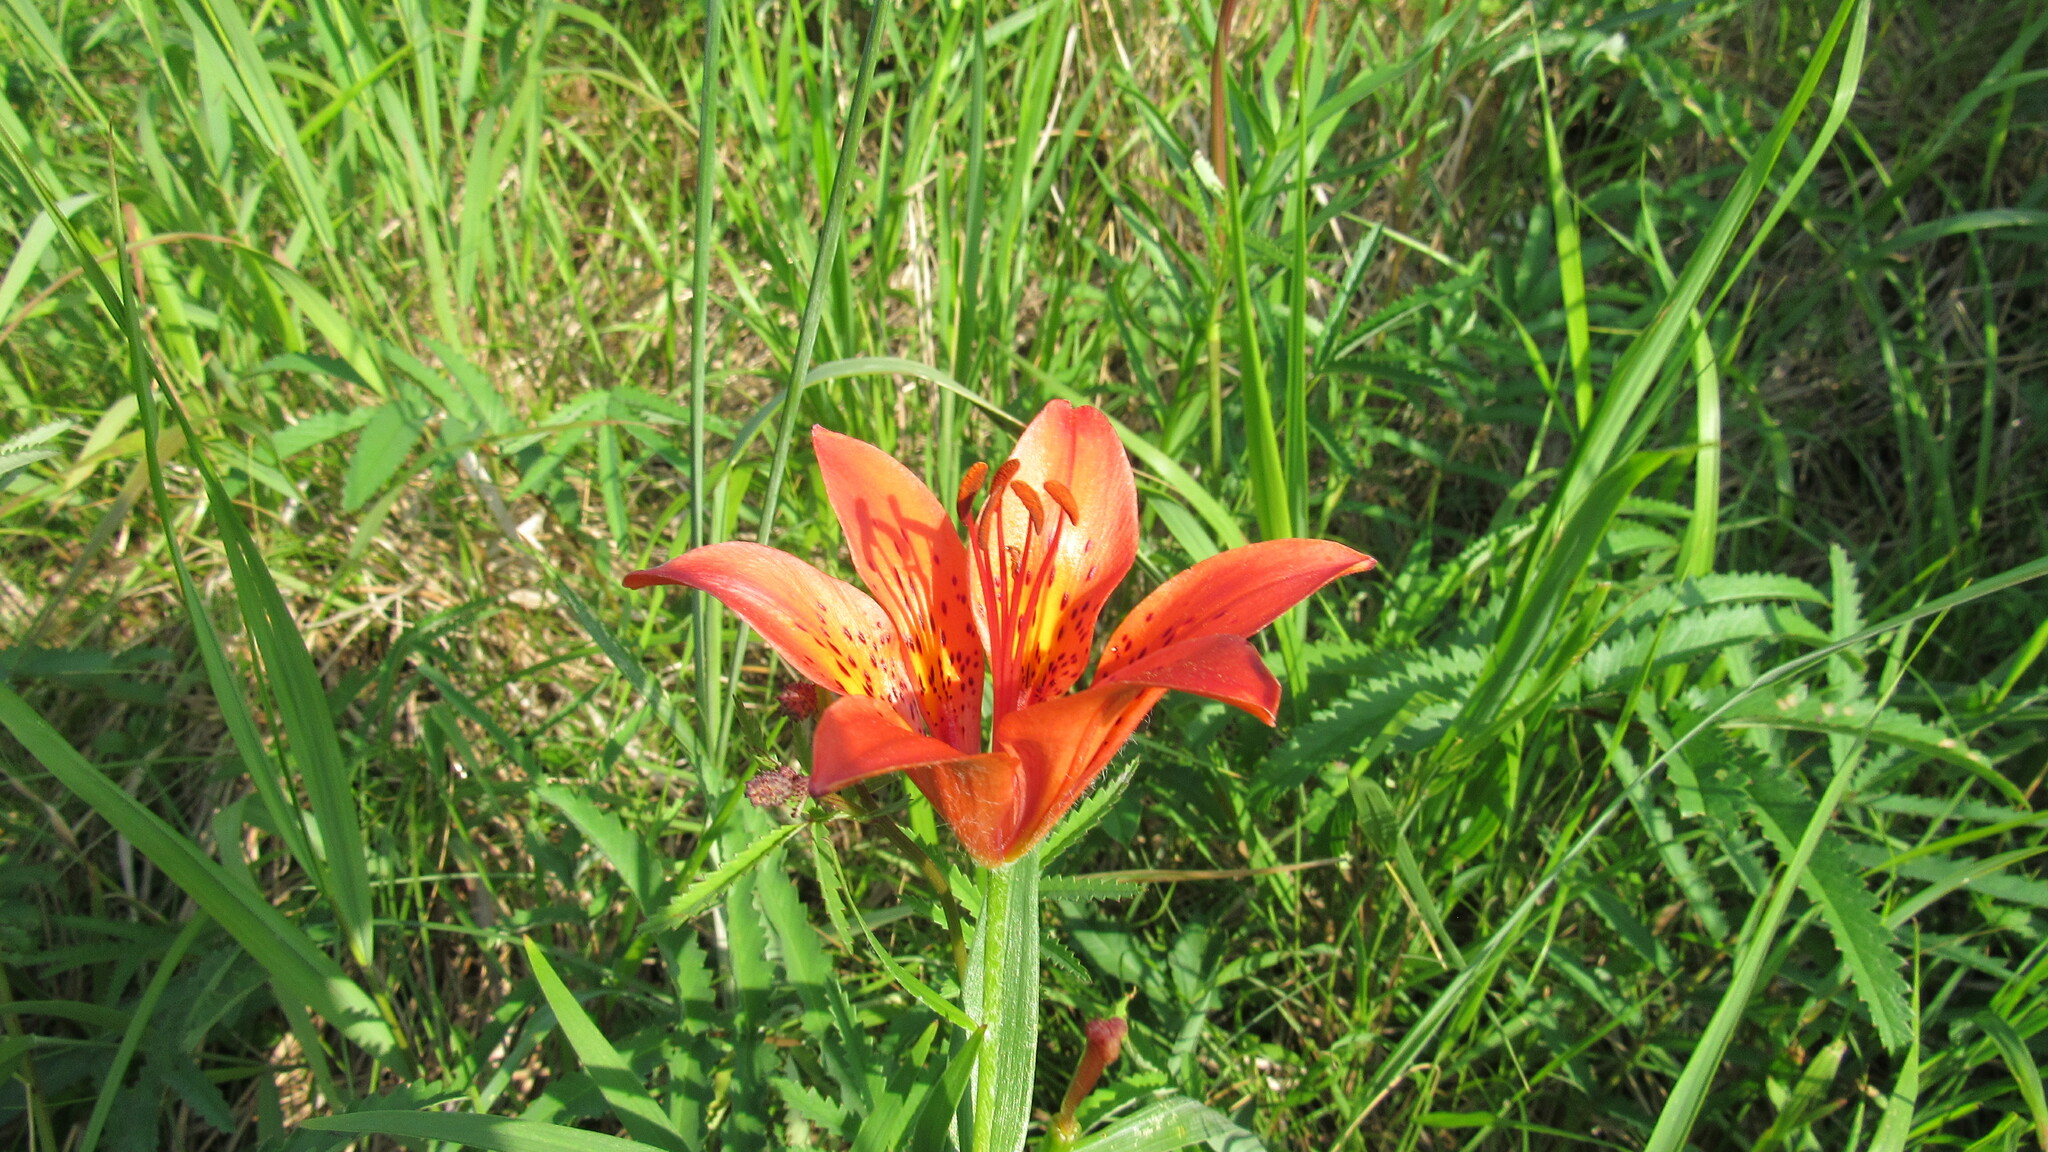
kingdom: Plantae
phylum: Tracheophyta
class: Liliopsida
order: Liliales
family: Liliaceae
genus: Lilium
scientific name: Lilium pensylvanicum
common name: Candlestick lily
